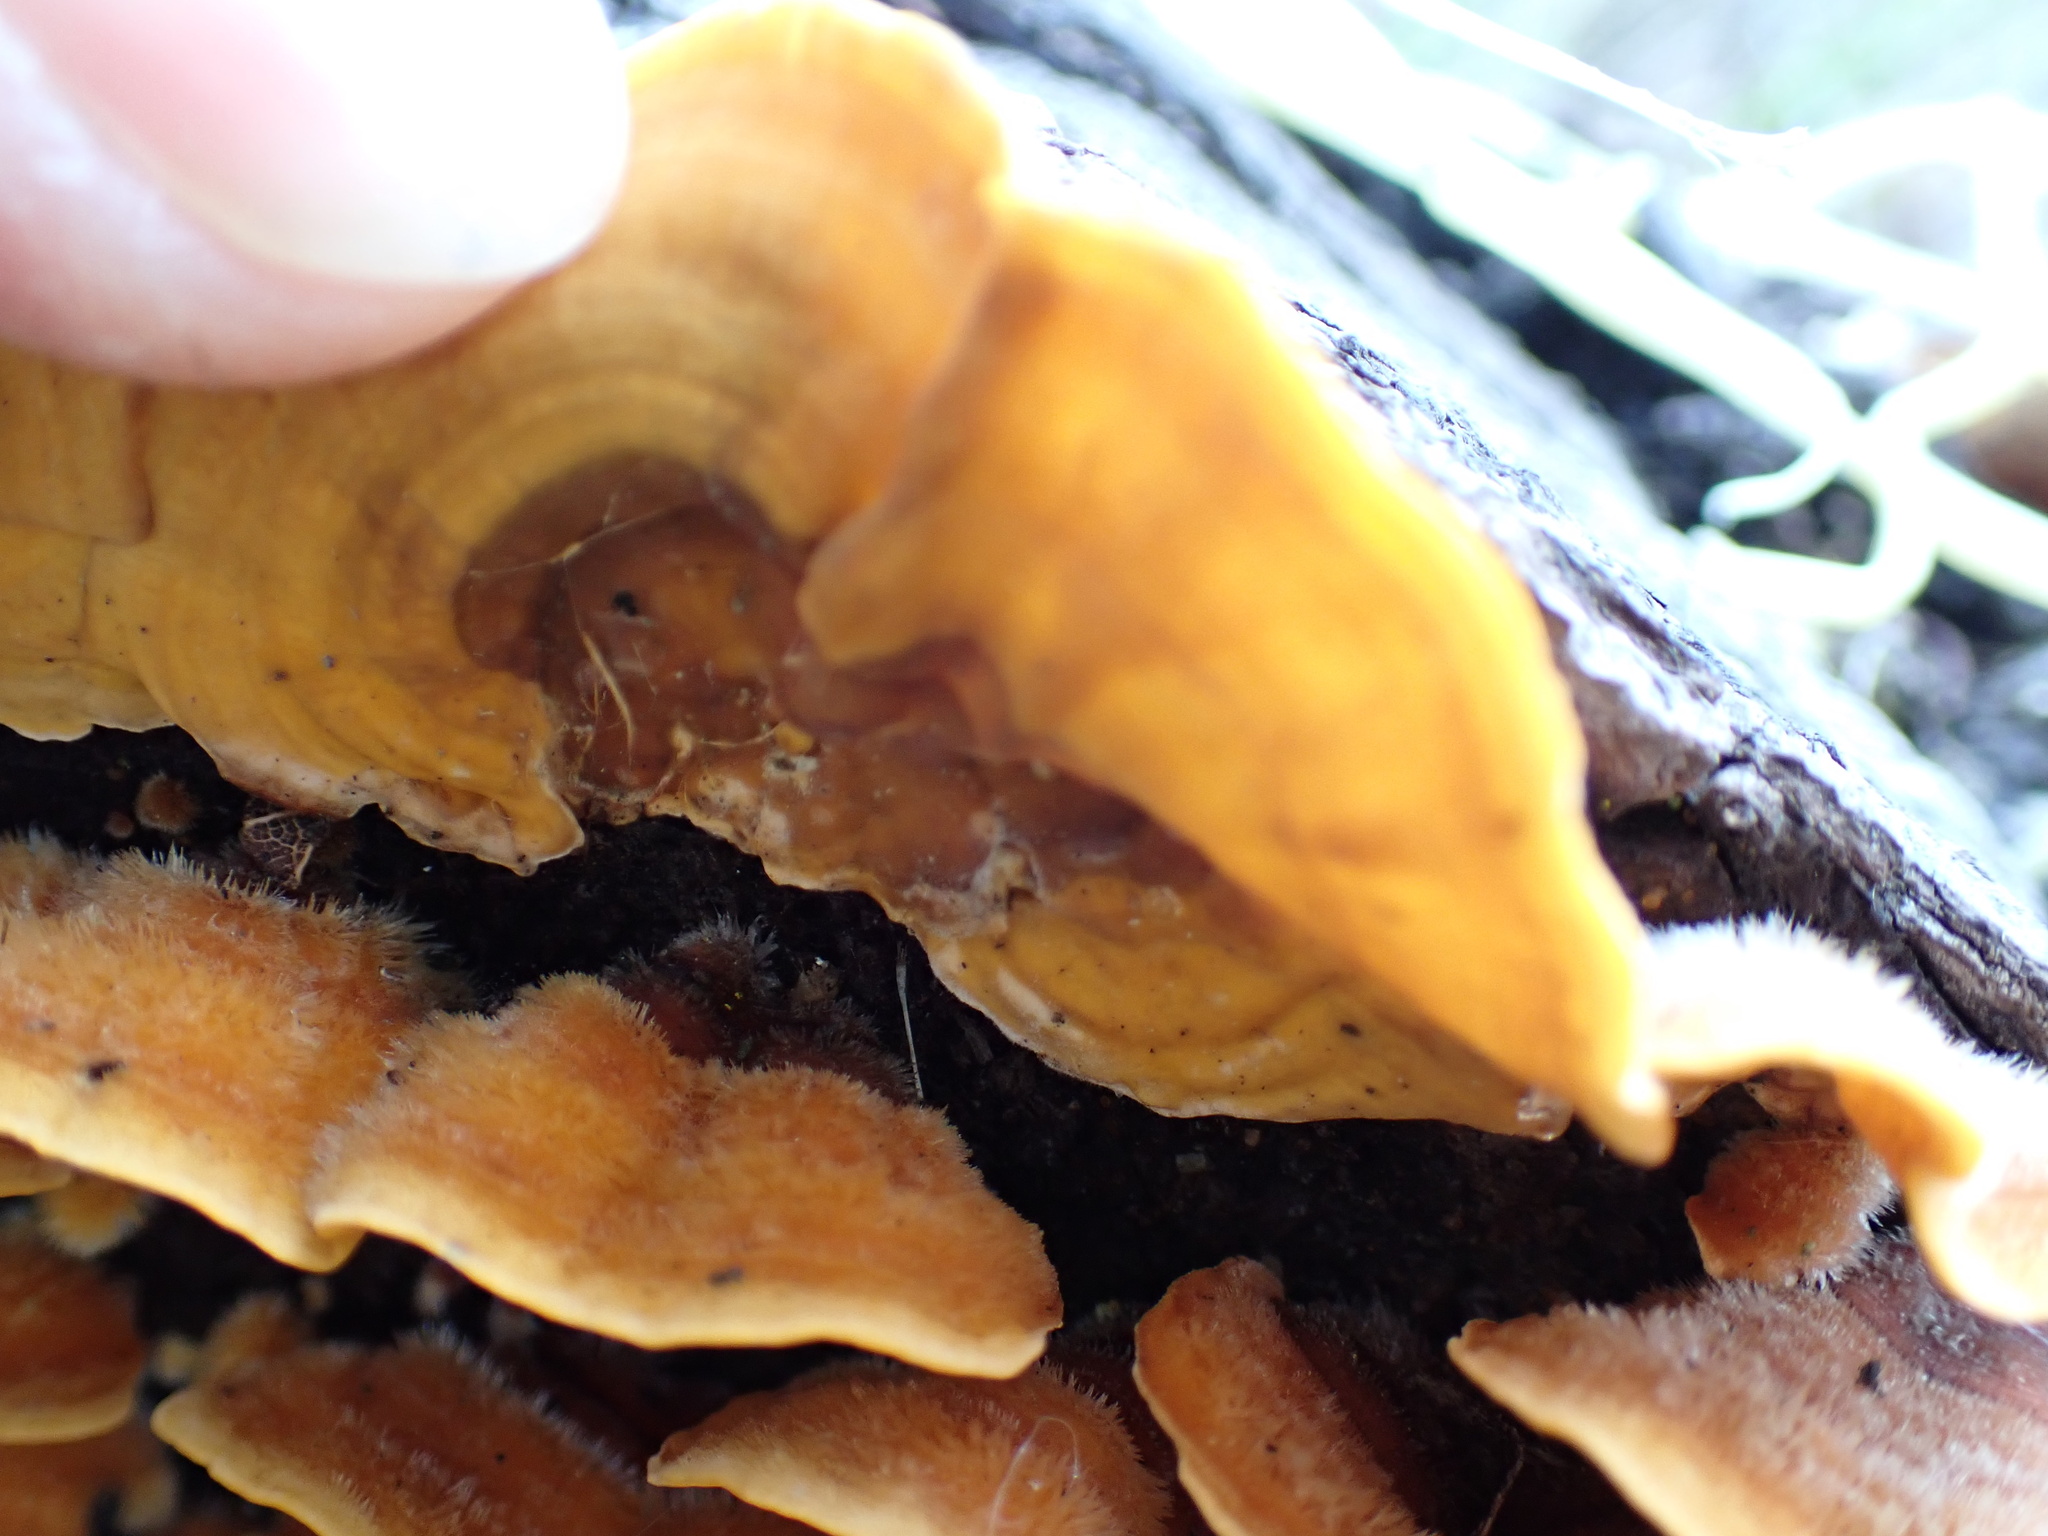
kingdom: Fungi
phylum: Basidiomycota
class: Agaricomycetes
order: Russulales
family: Stereaceae
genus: Stereum
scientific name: Stereum hirsutum
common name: Hairy curtain crust
